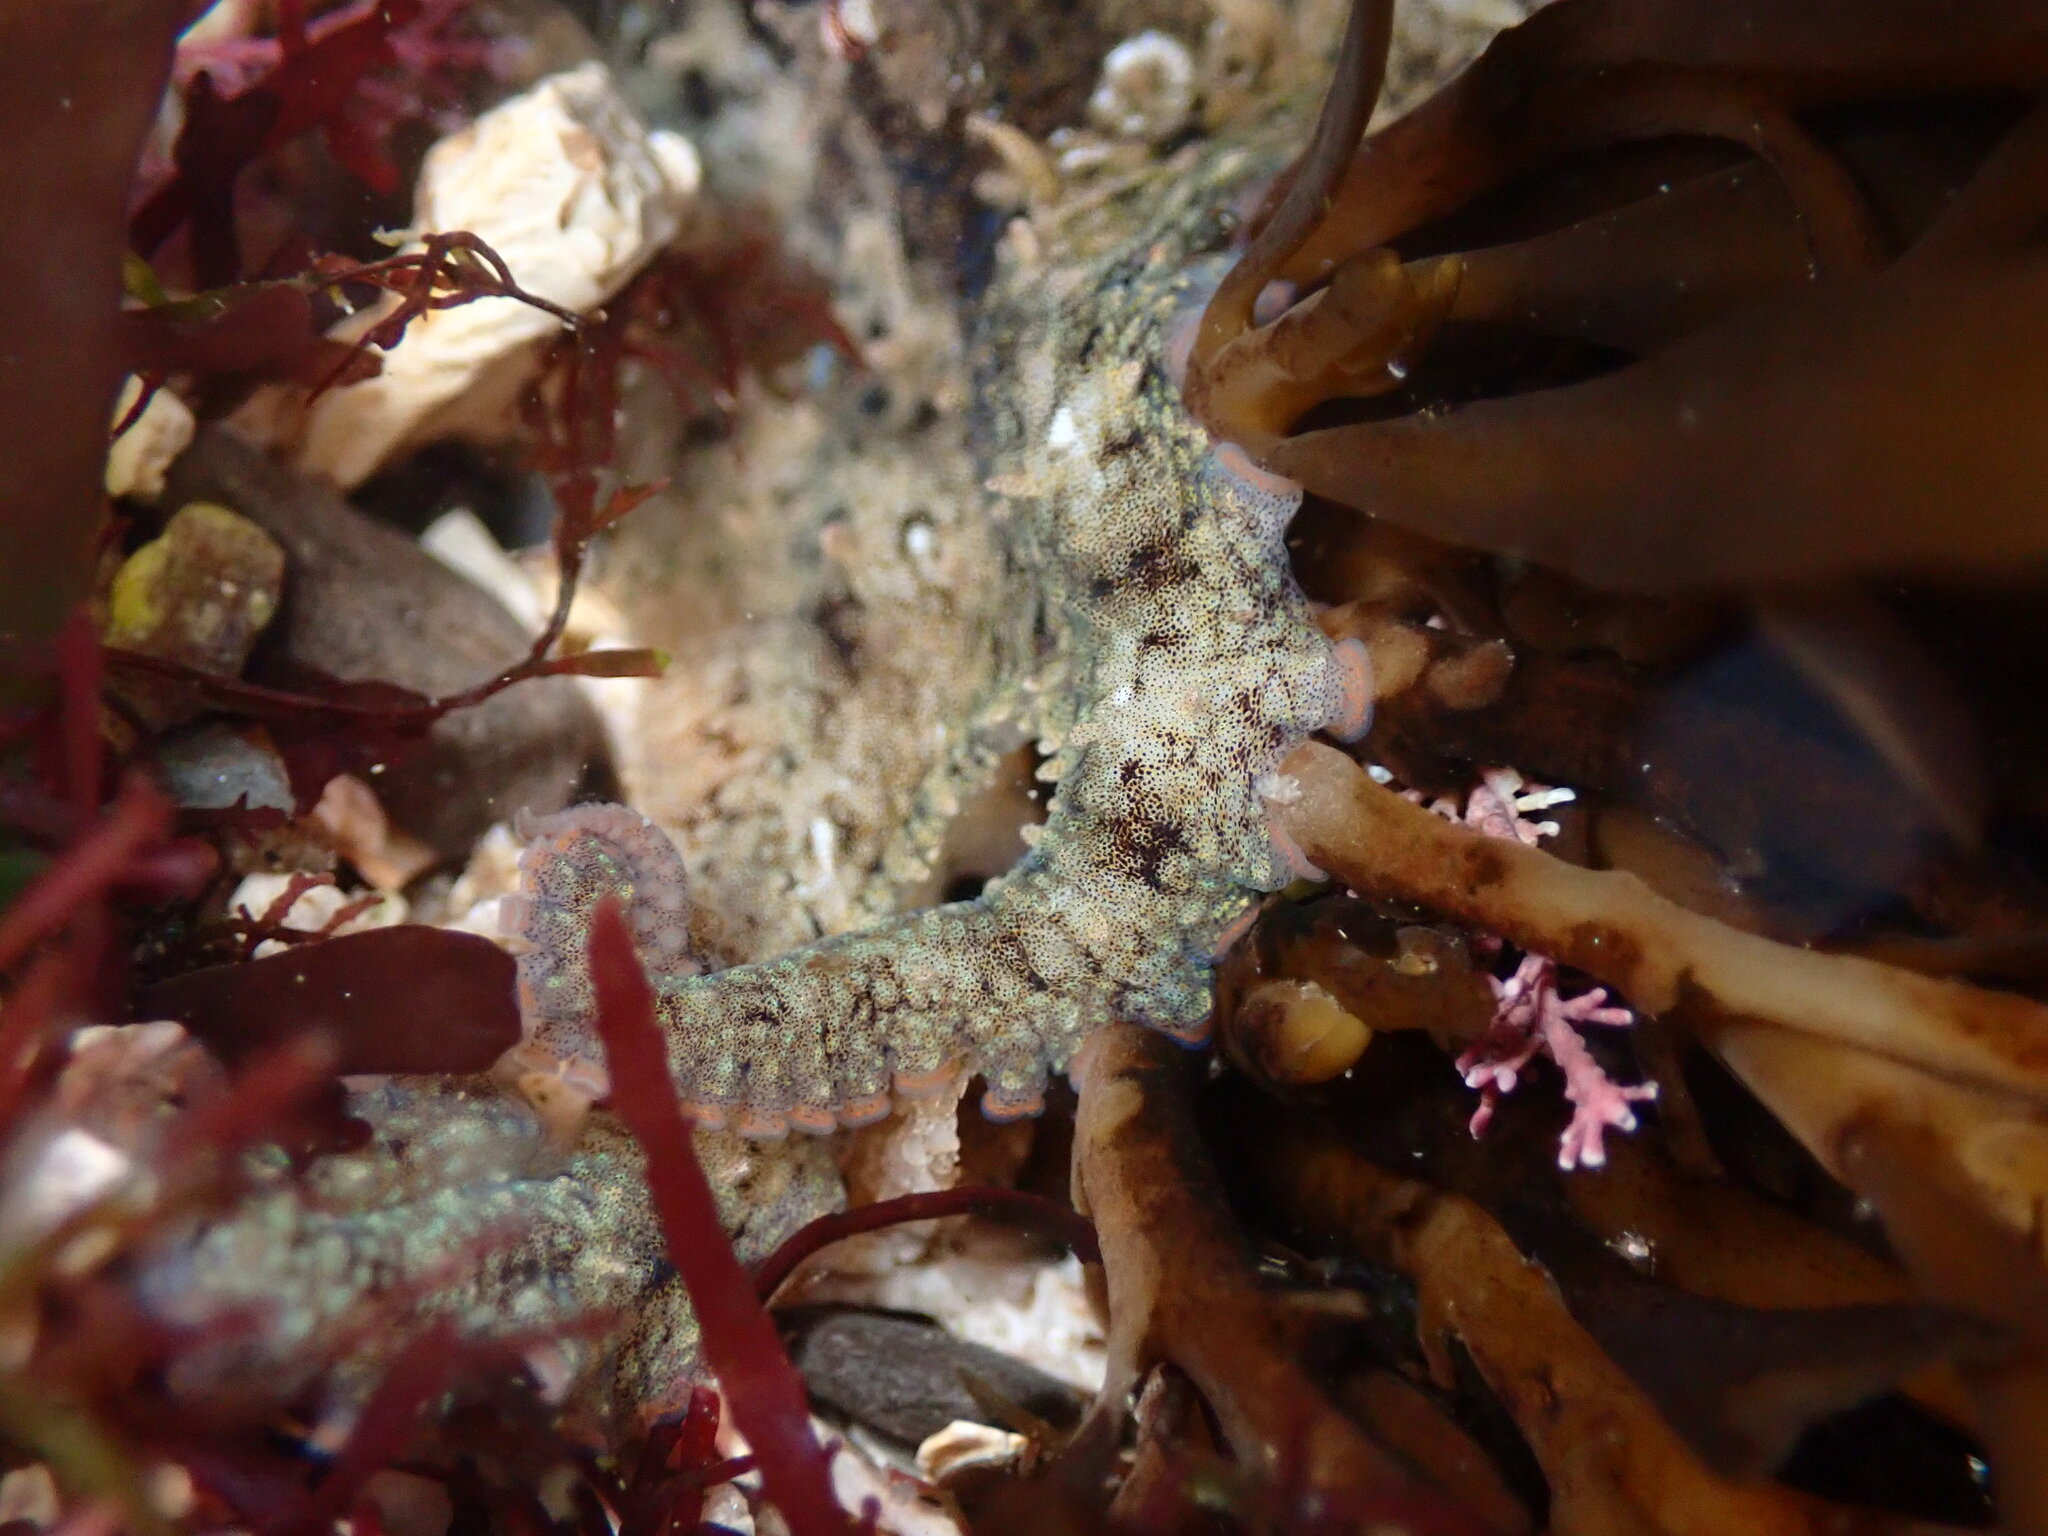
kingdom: Animalia
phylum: Mollusca
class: Cephalopoda
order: Octopoda
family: Octopodidae
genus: Octopus
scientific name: Octopus bimaculoides
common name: California two-spot octopus
